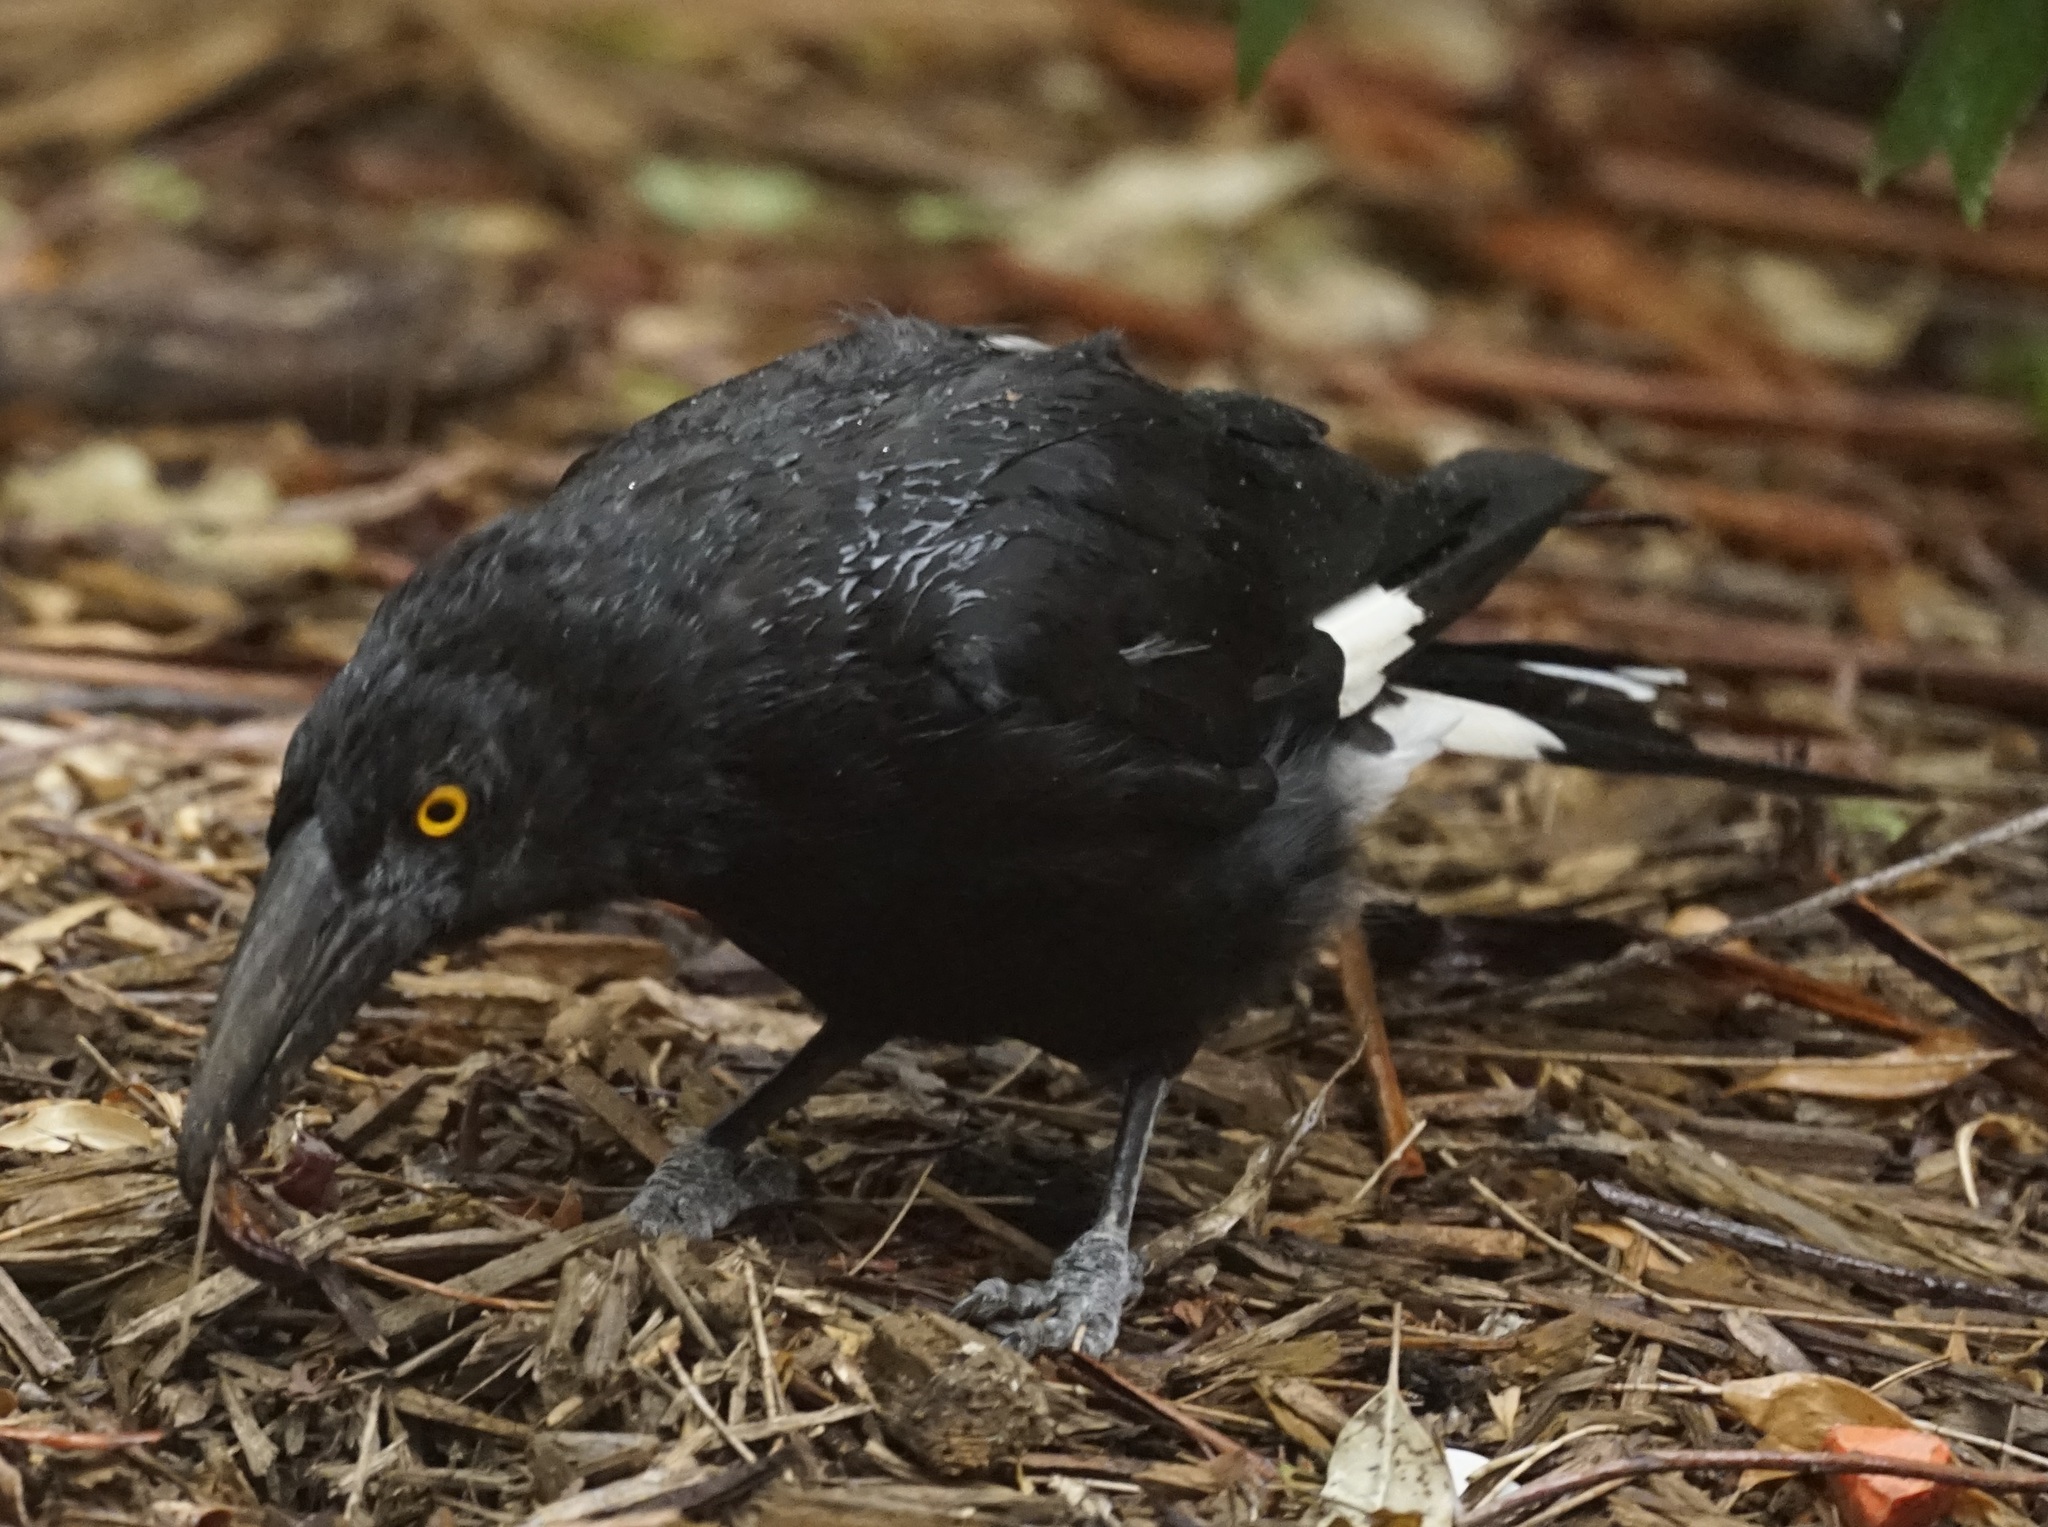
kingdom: Animalia
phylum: Chordata
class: Aves
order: Passeriformes
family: Cracticidae
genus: Strepera
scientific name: Strepera graculina
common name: Pied currawong
